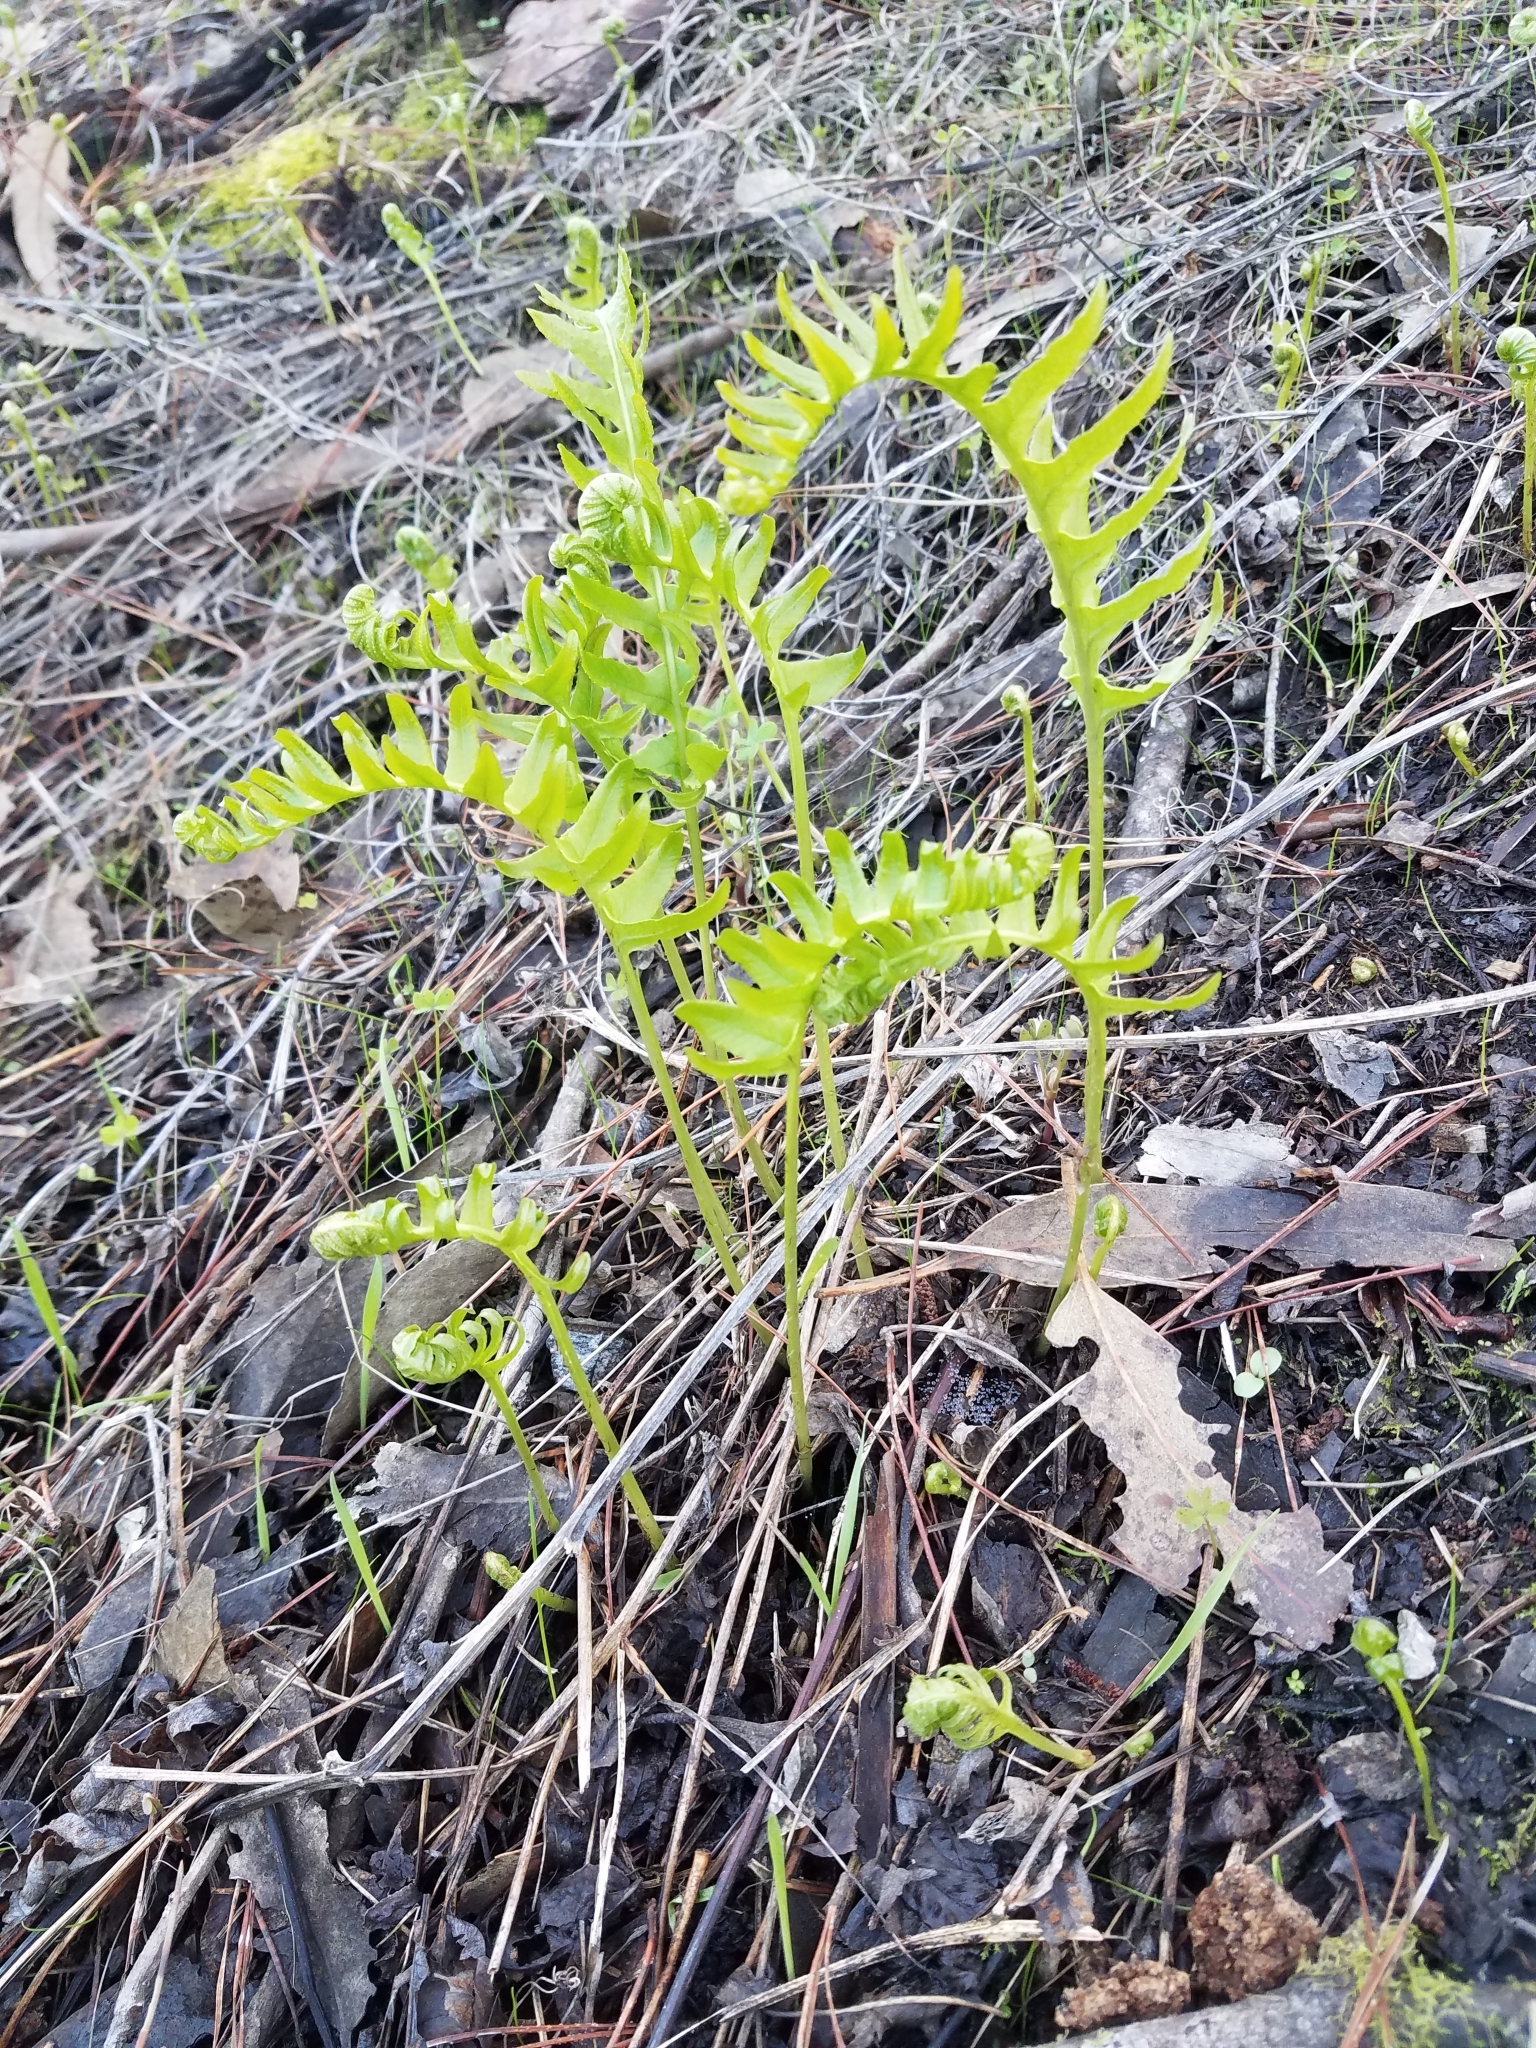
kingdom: Plantae
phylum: Tracheophyta
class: Polypodiopsida
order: Polypodiales
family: Polypodiaceae
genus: Polypodium
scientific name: Polypodium californicum
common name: California polypody
